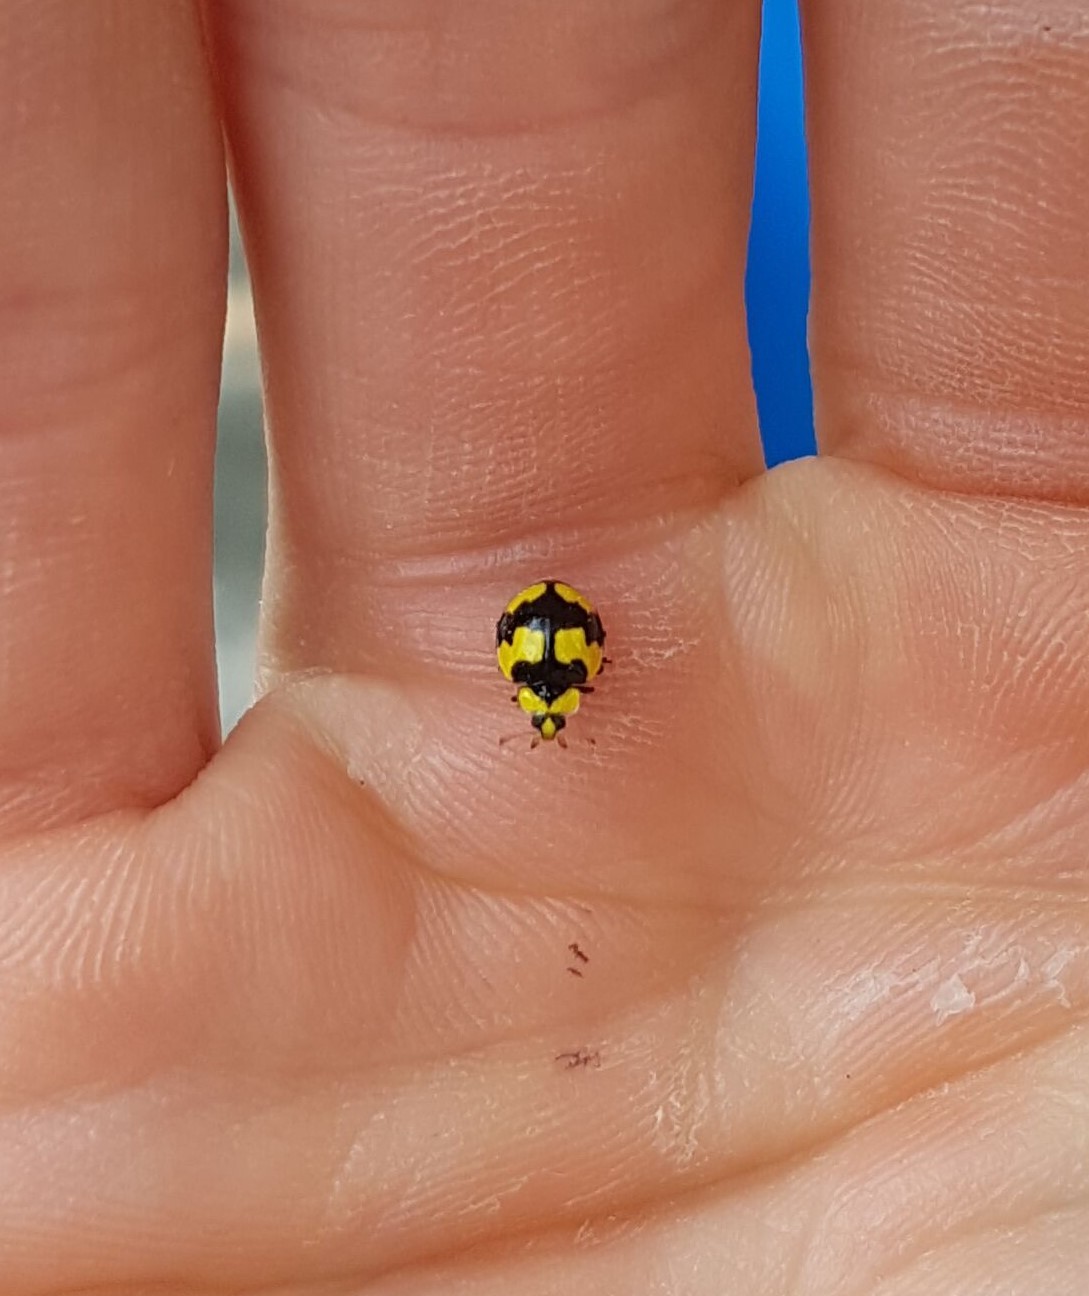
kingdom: Animalia
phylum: Arthropoda
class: Insecta
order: Coleoptera
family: Coccinellidae
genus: Illeis
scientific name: Illeis galbula
